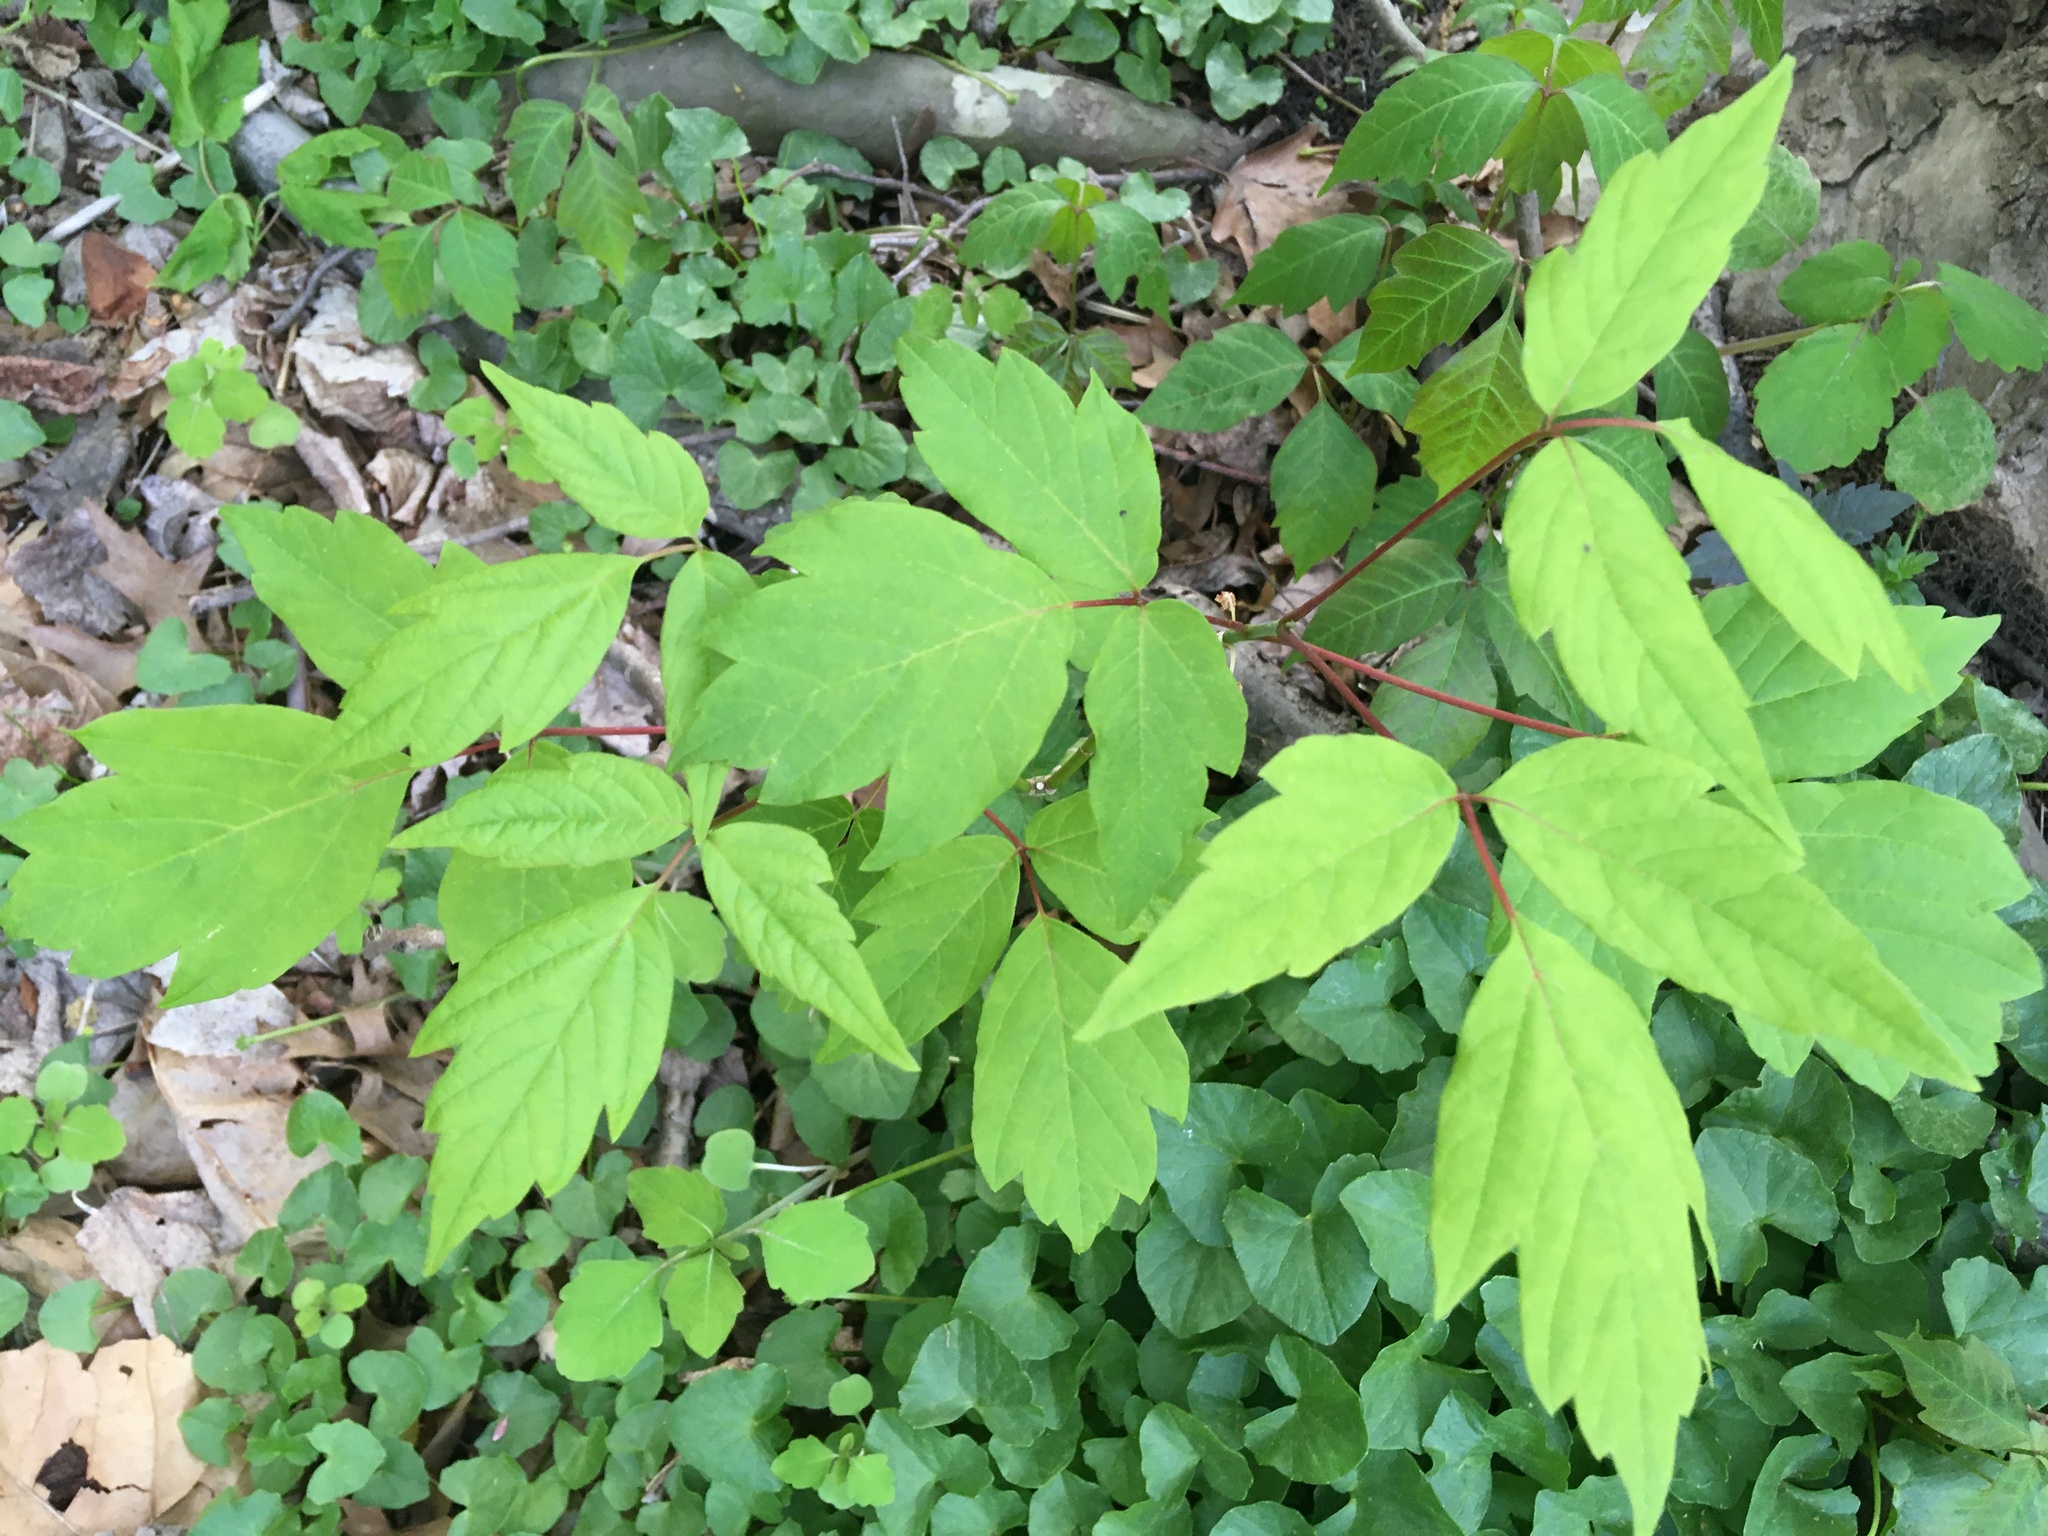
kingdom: Plantae
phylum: Tracheophyta
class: Magnoliopsida
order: Sapindales
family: Sapindaceae
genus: Acer
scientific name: Acer negundo
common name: Ashleaf maple
